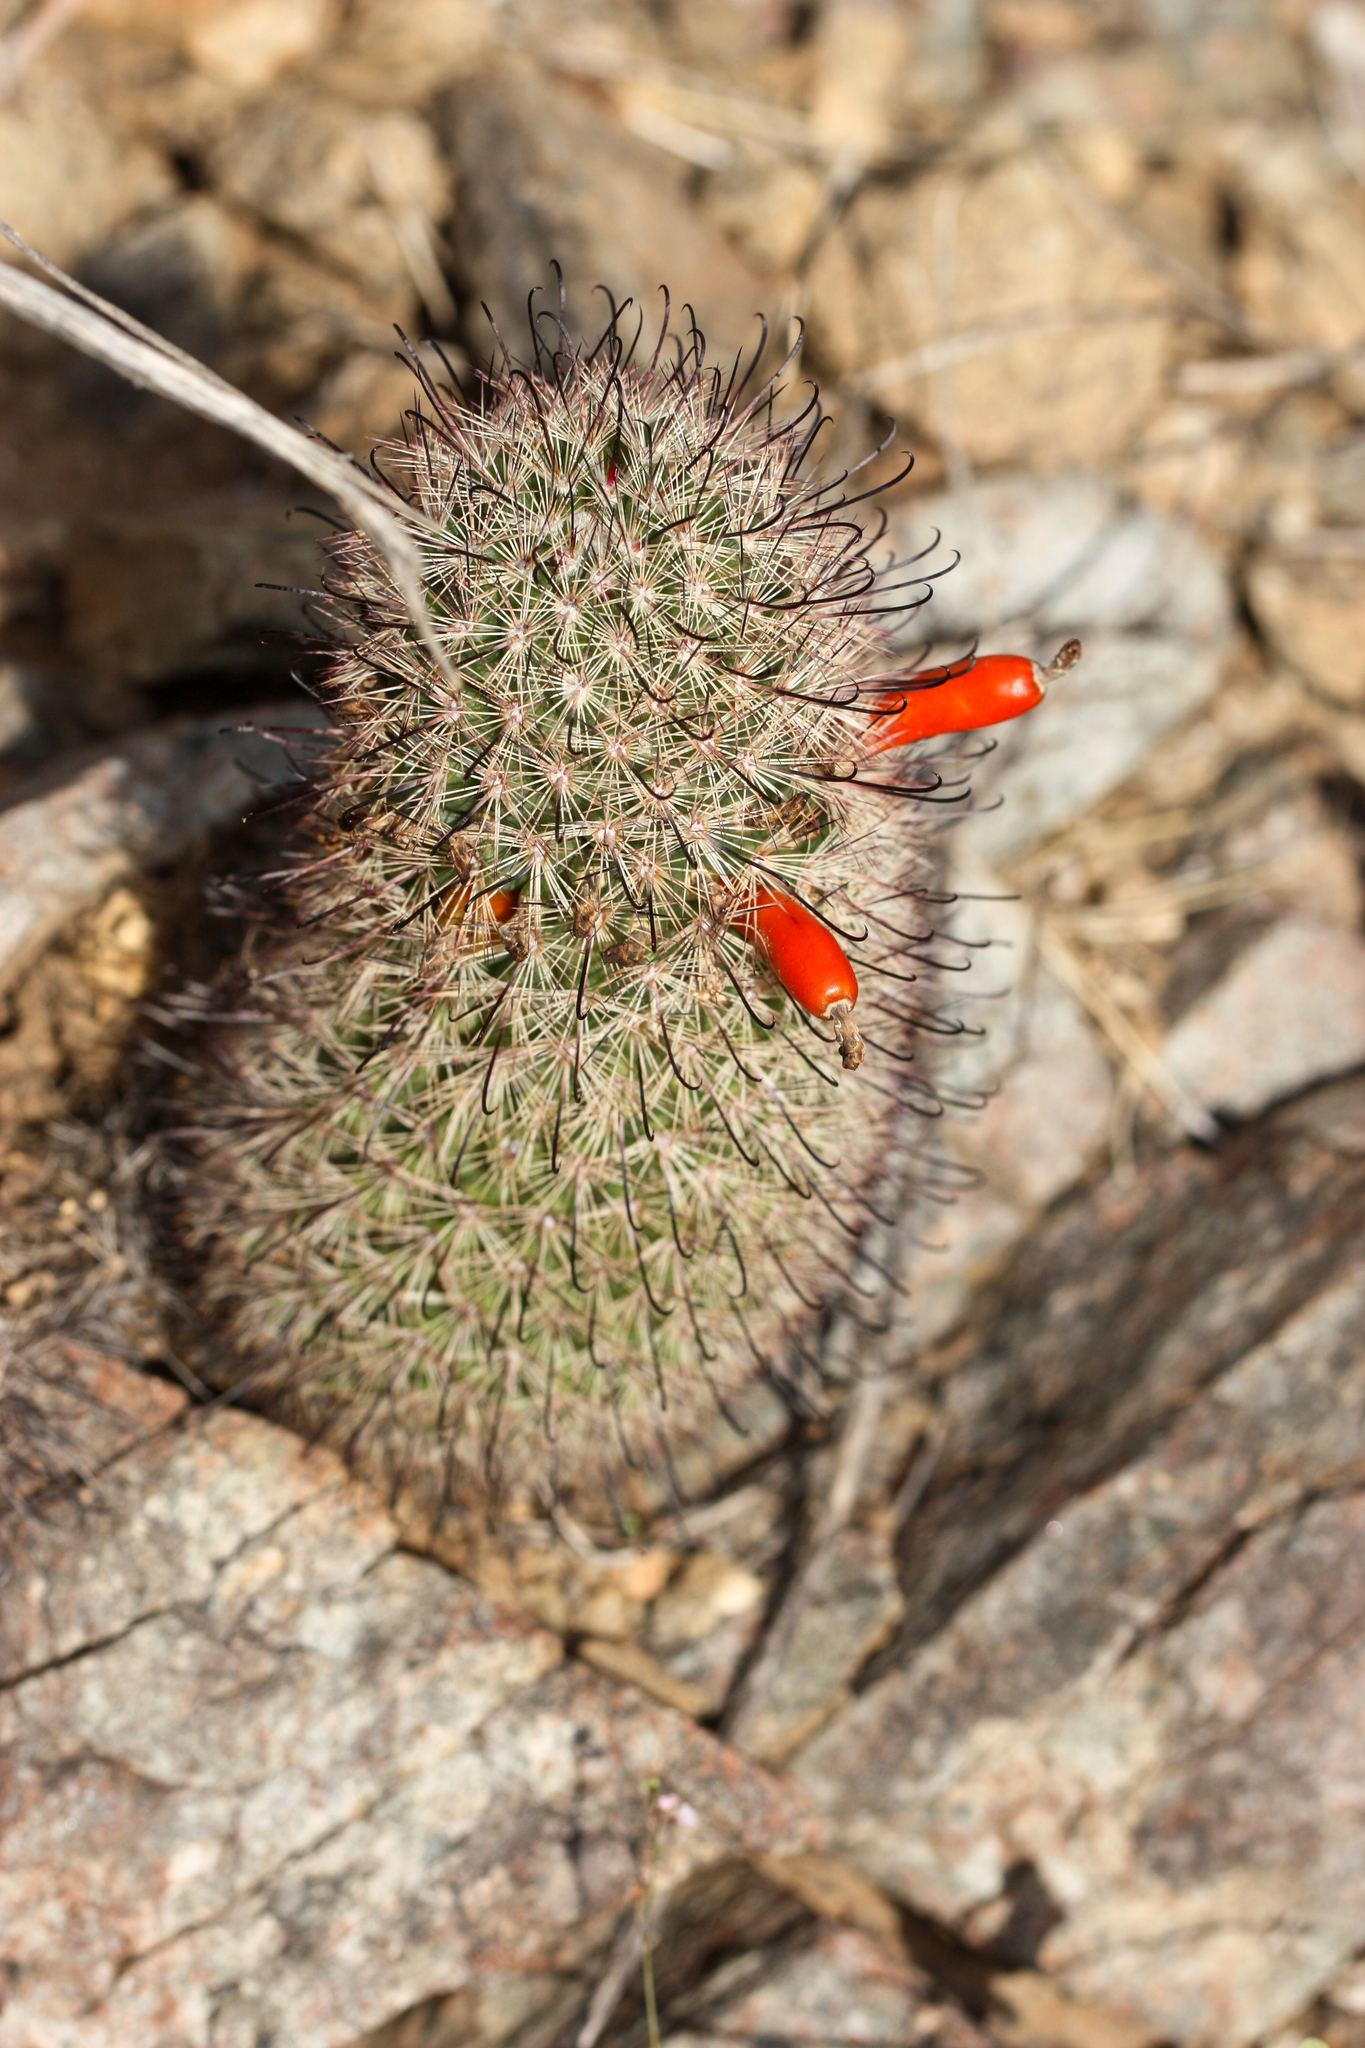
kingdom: Plantae
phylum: Tracheophyta
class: Magnoliopsida
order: Caryophyllales
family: Cactaceae
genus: Cochemiea
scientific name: Cochemiea grahamii
